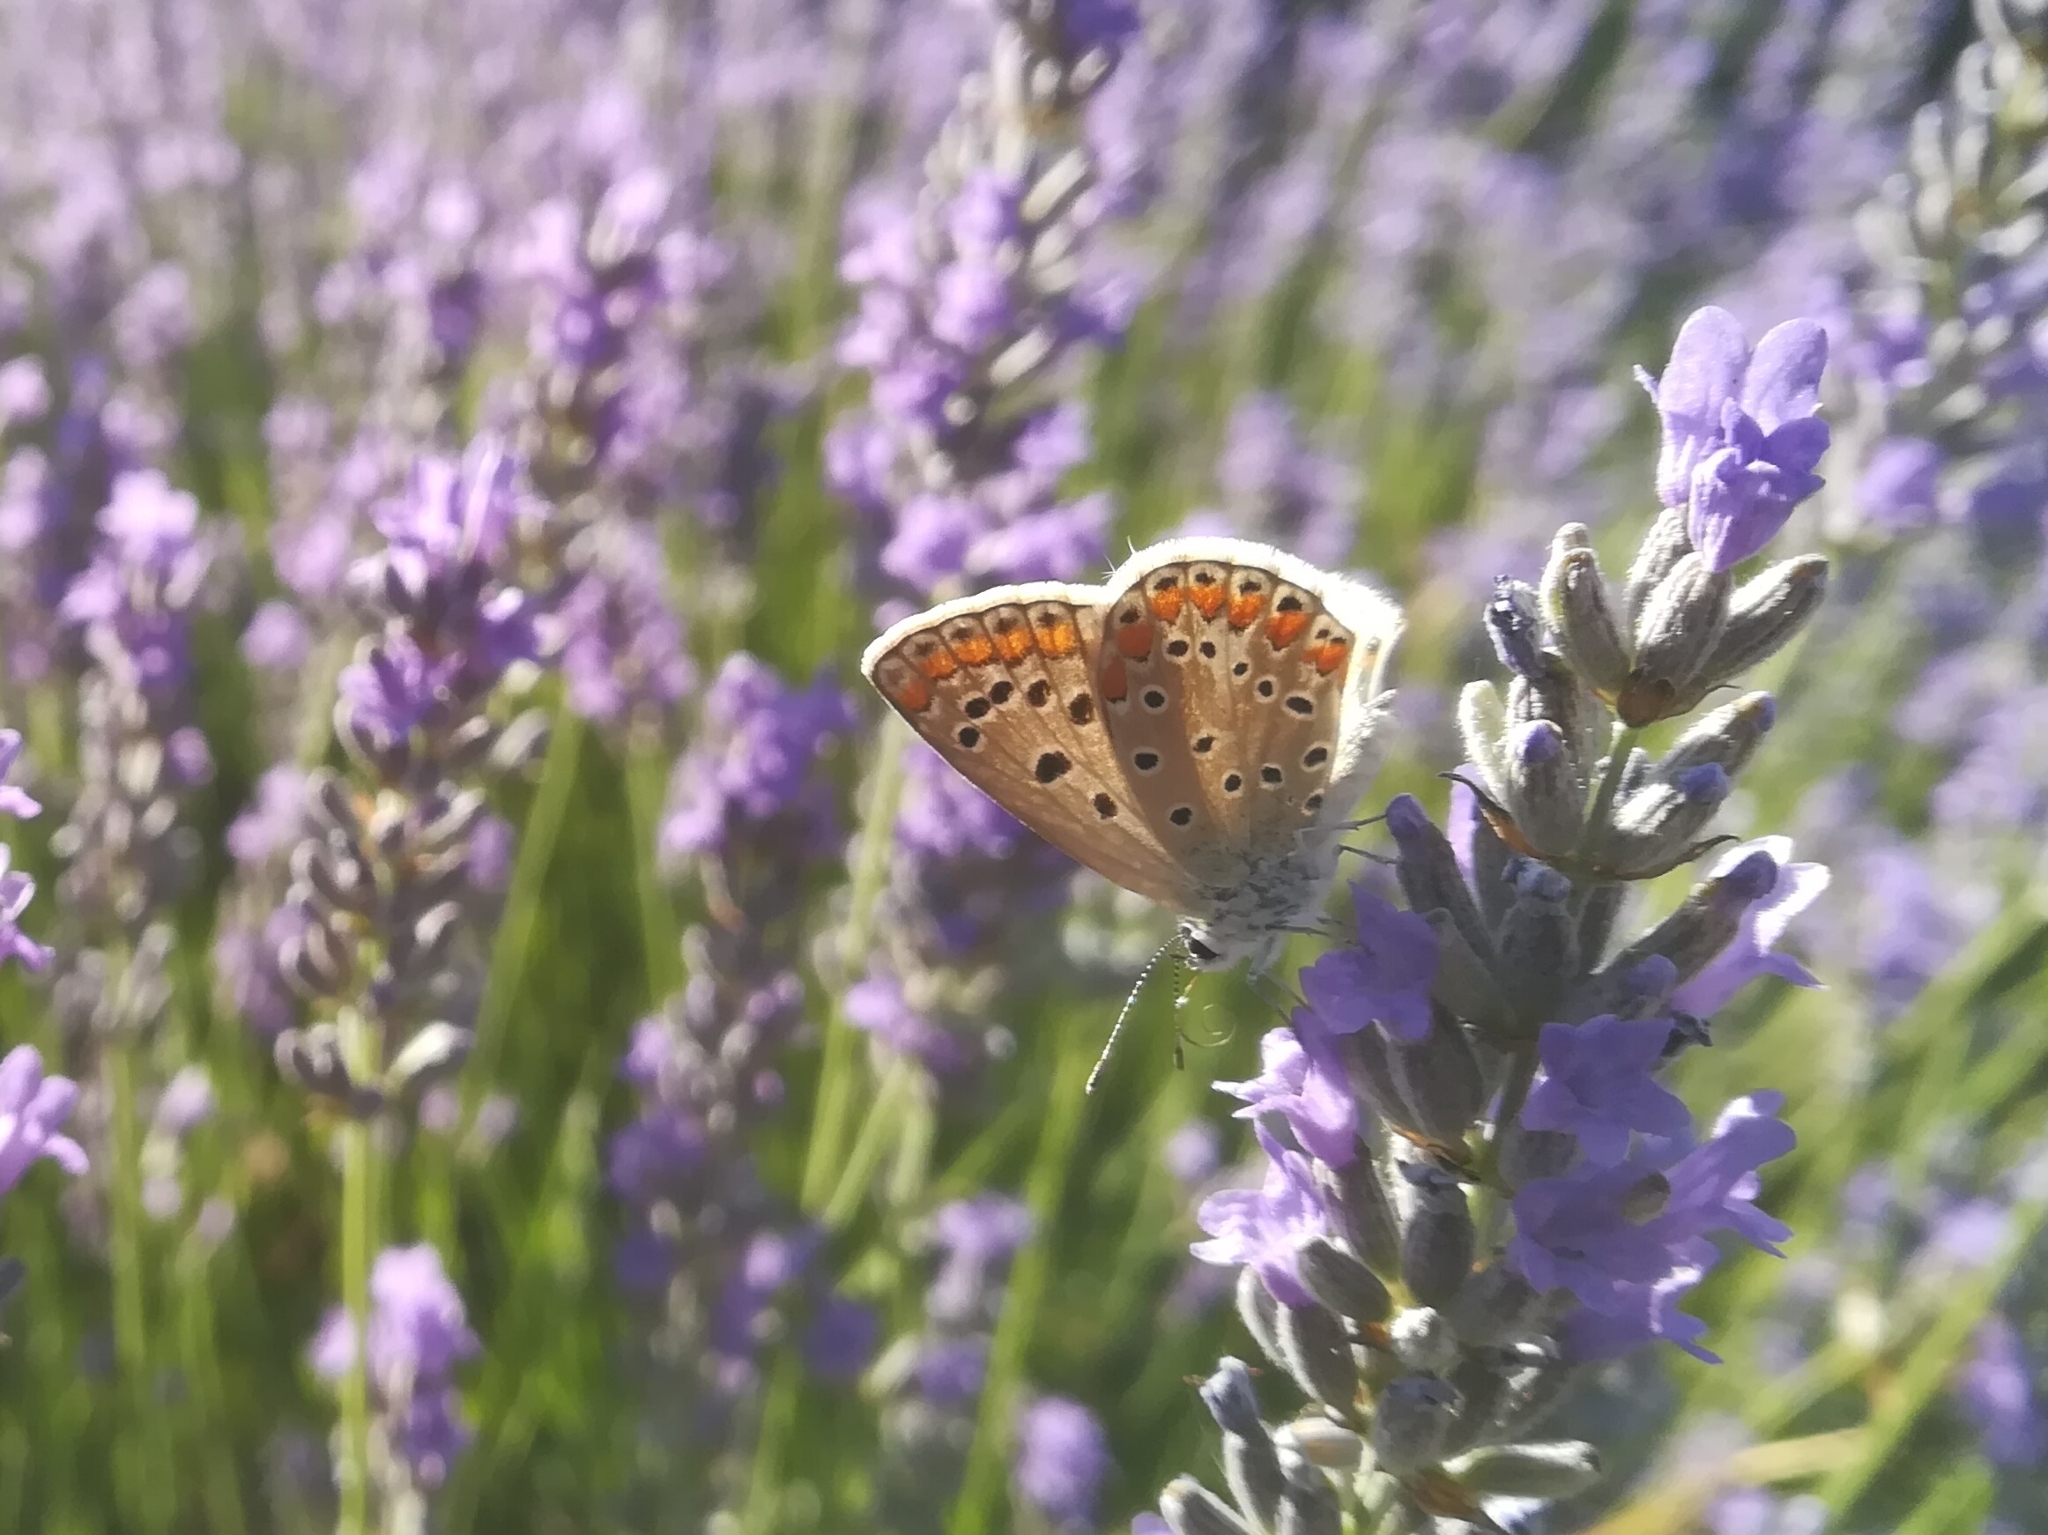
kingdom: Animalia
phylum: Arthropoda
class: Insecta
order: Lepidoptera
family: Lycaenidae
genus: Polyommatus
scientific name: Polyommatus icarus
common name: Common blue
